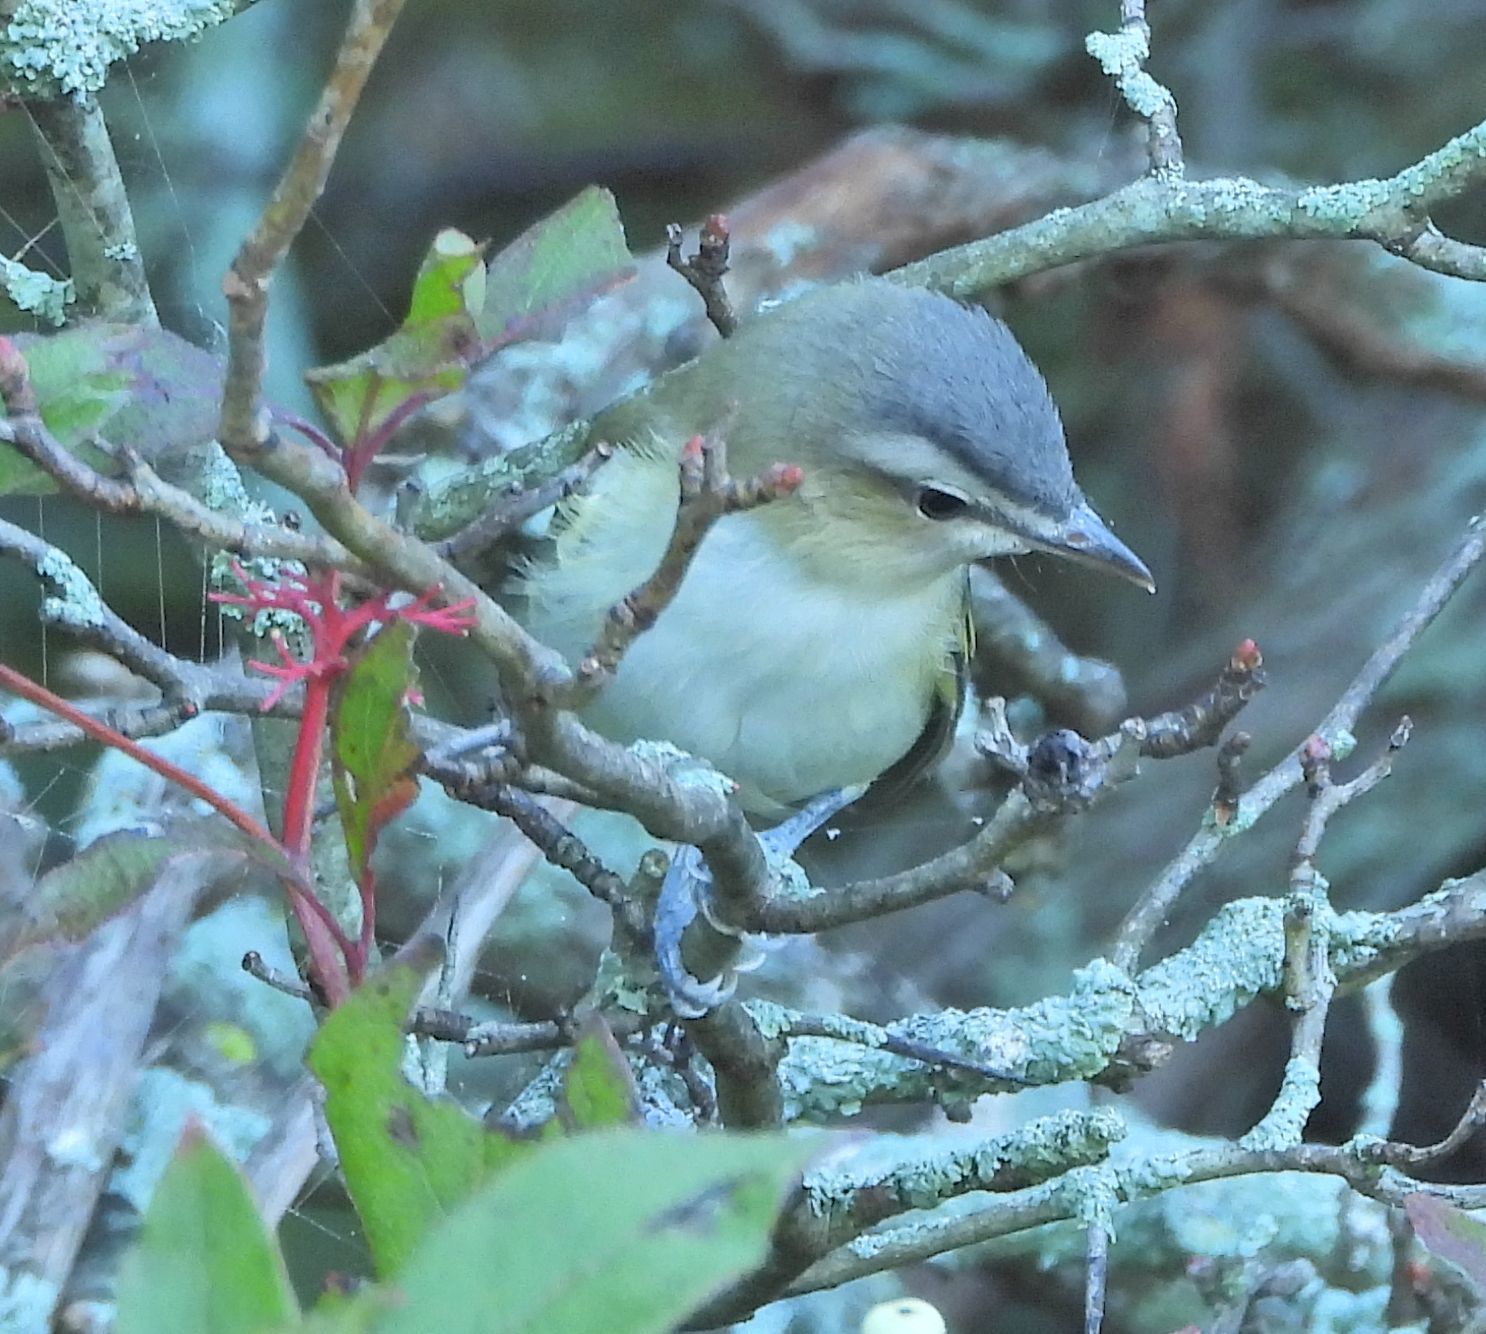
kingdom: Animalia
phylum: Chordata
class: Aves
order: Passeriformes
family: Vireonidae
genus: Vireo
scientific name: Vireo olivaceus
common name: Red-eyed vireo
